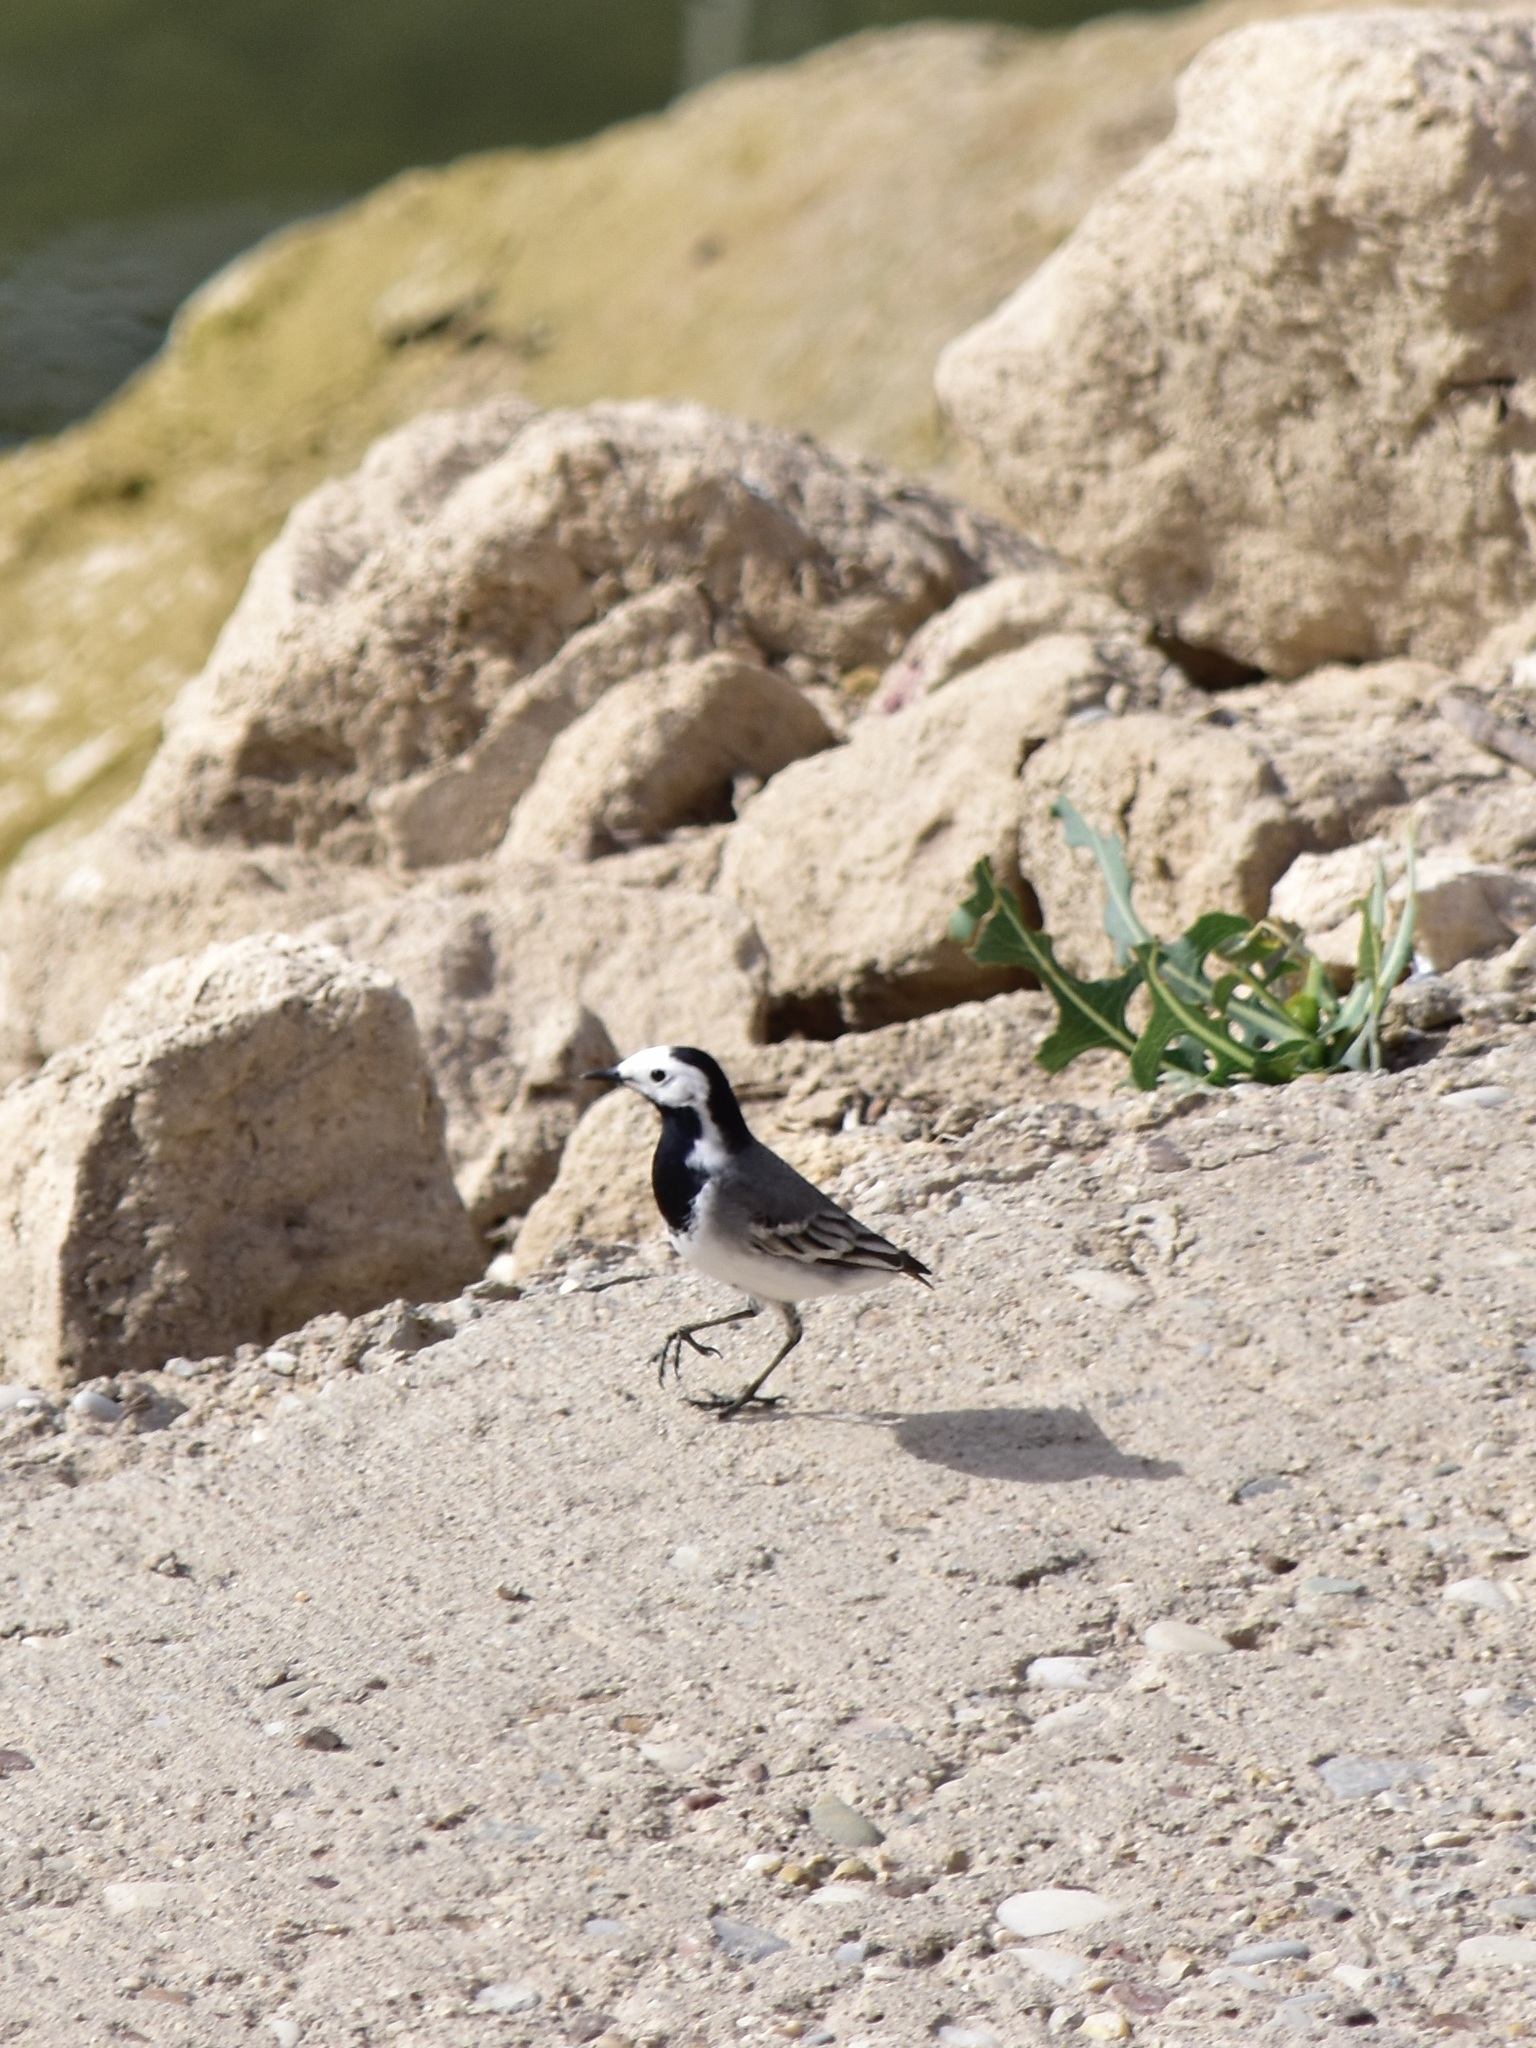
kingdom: Animalia
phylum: Chordata
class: Aves
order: Passeriformes
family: Motacillidae
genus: Motacilla
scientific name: Motacilla alba
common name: White wagtail
